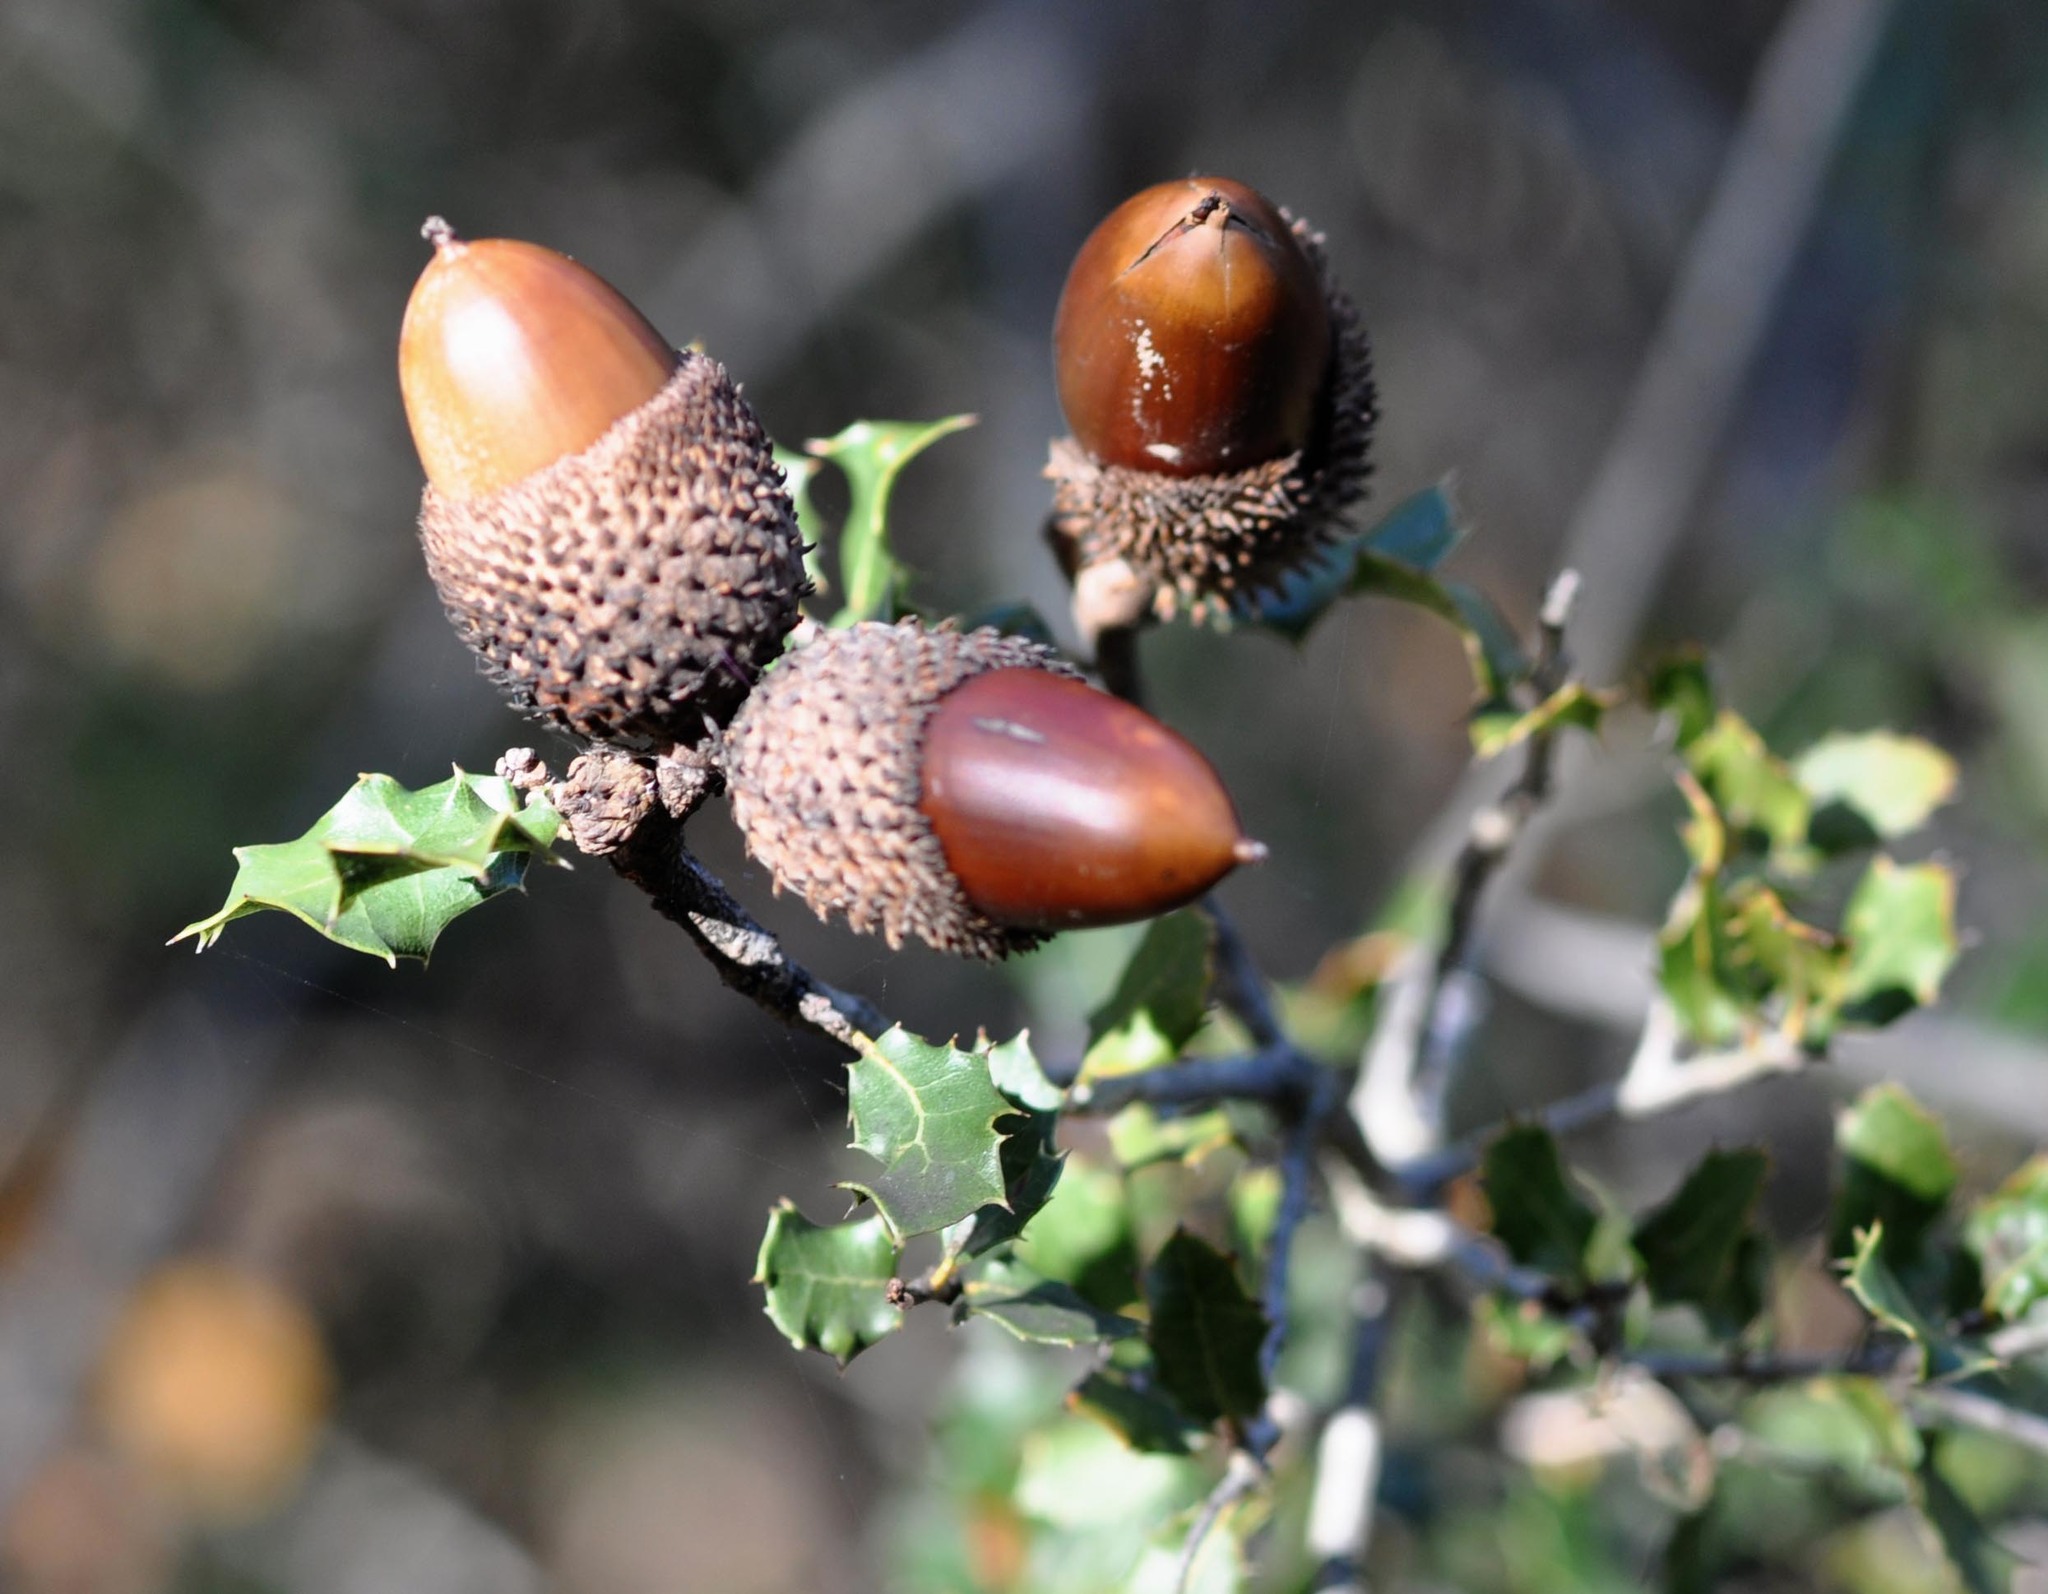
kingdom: Plantae
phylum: Tracheophyta
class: Magnoliopsida
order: Fagales
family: Fagaceae
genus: Quercus
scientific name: Quercus coccifera
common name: Kermes oak
